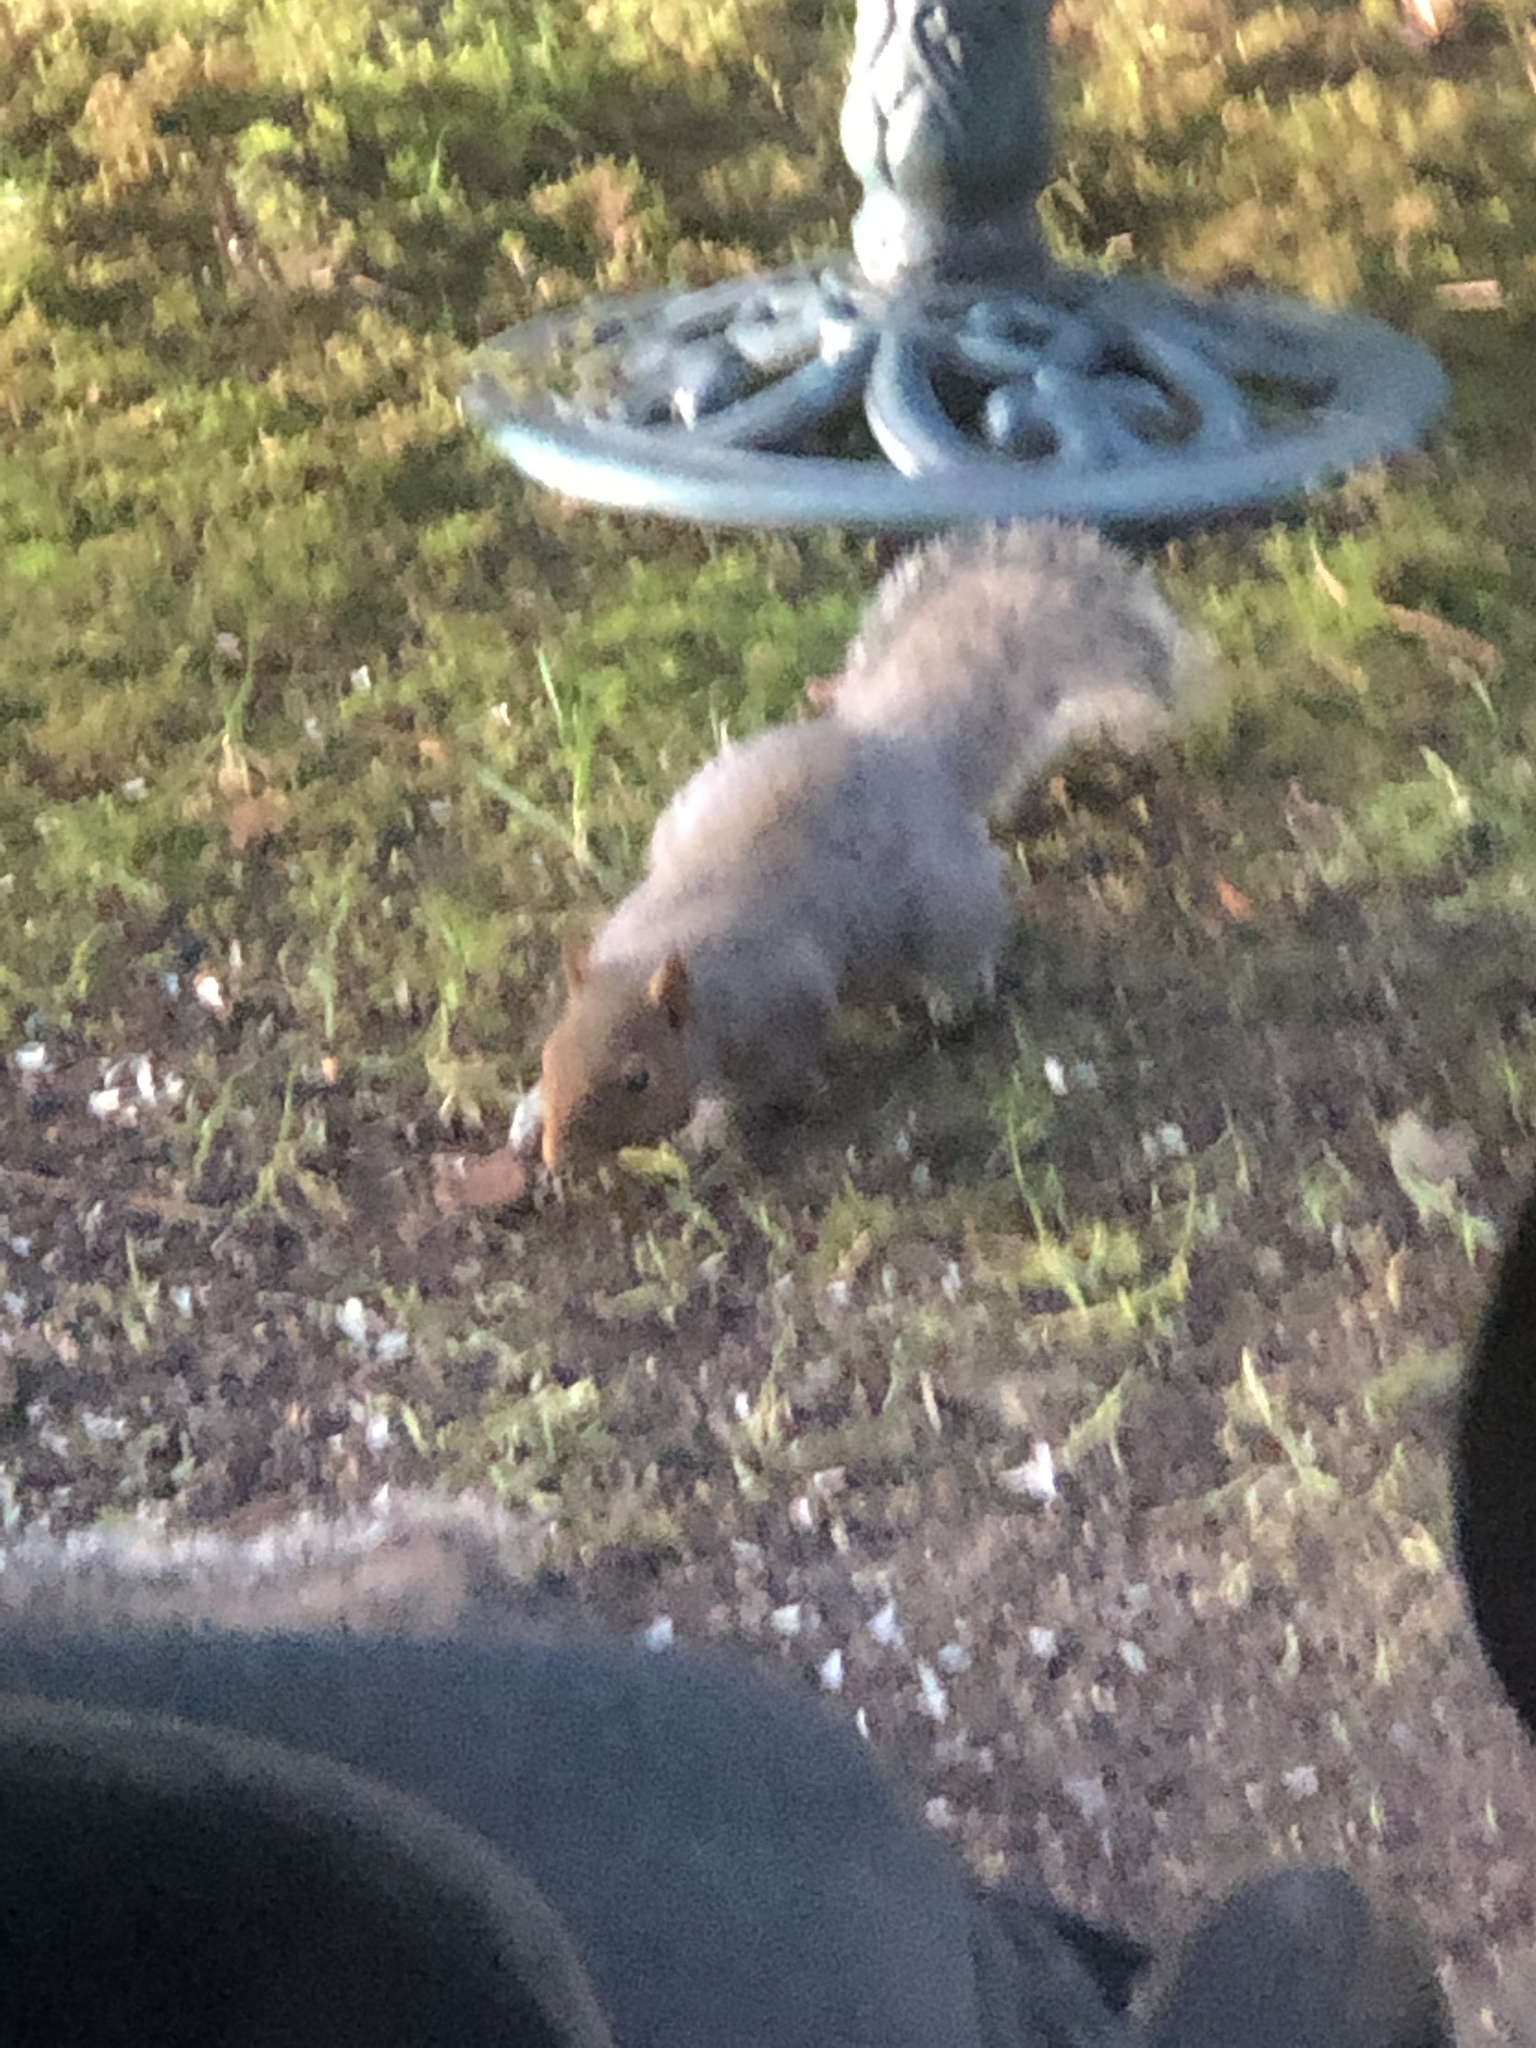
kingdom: Animalia
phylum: Chordata
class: Mammalia
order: Rodentia
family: Sciuridae
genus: Sciurus
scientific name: Sciurus carolinensis
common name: Eastern gray squirrel
